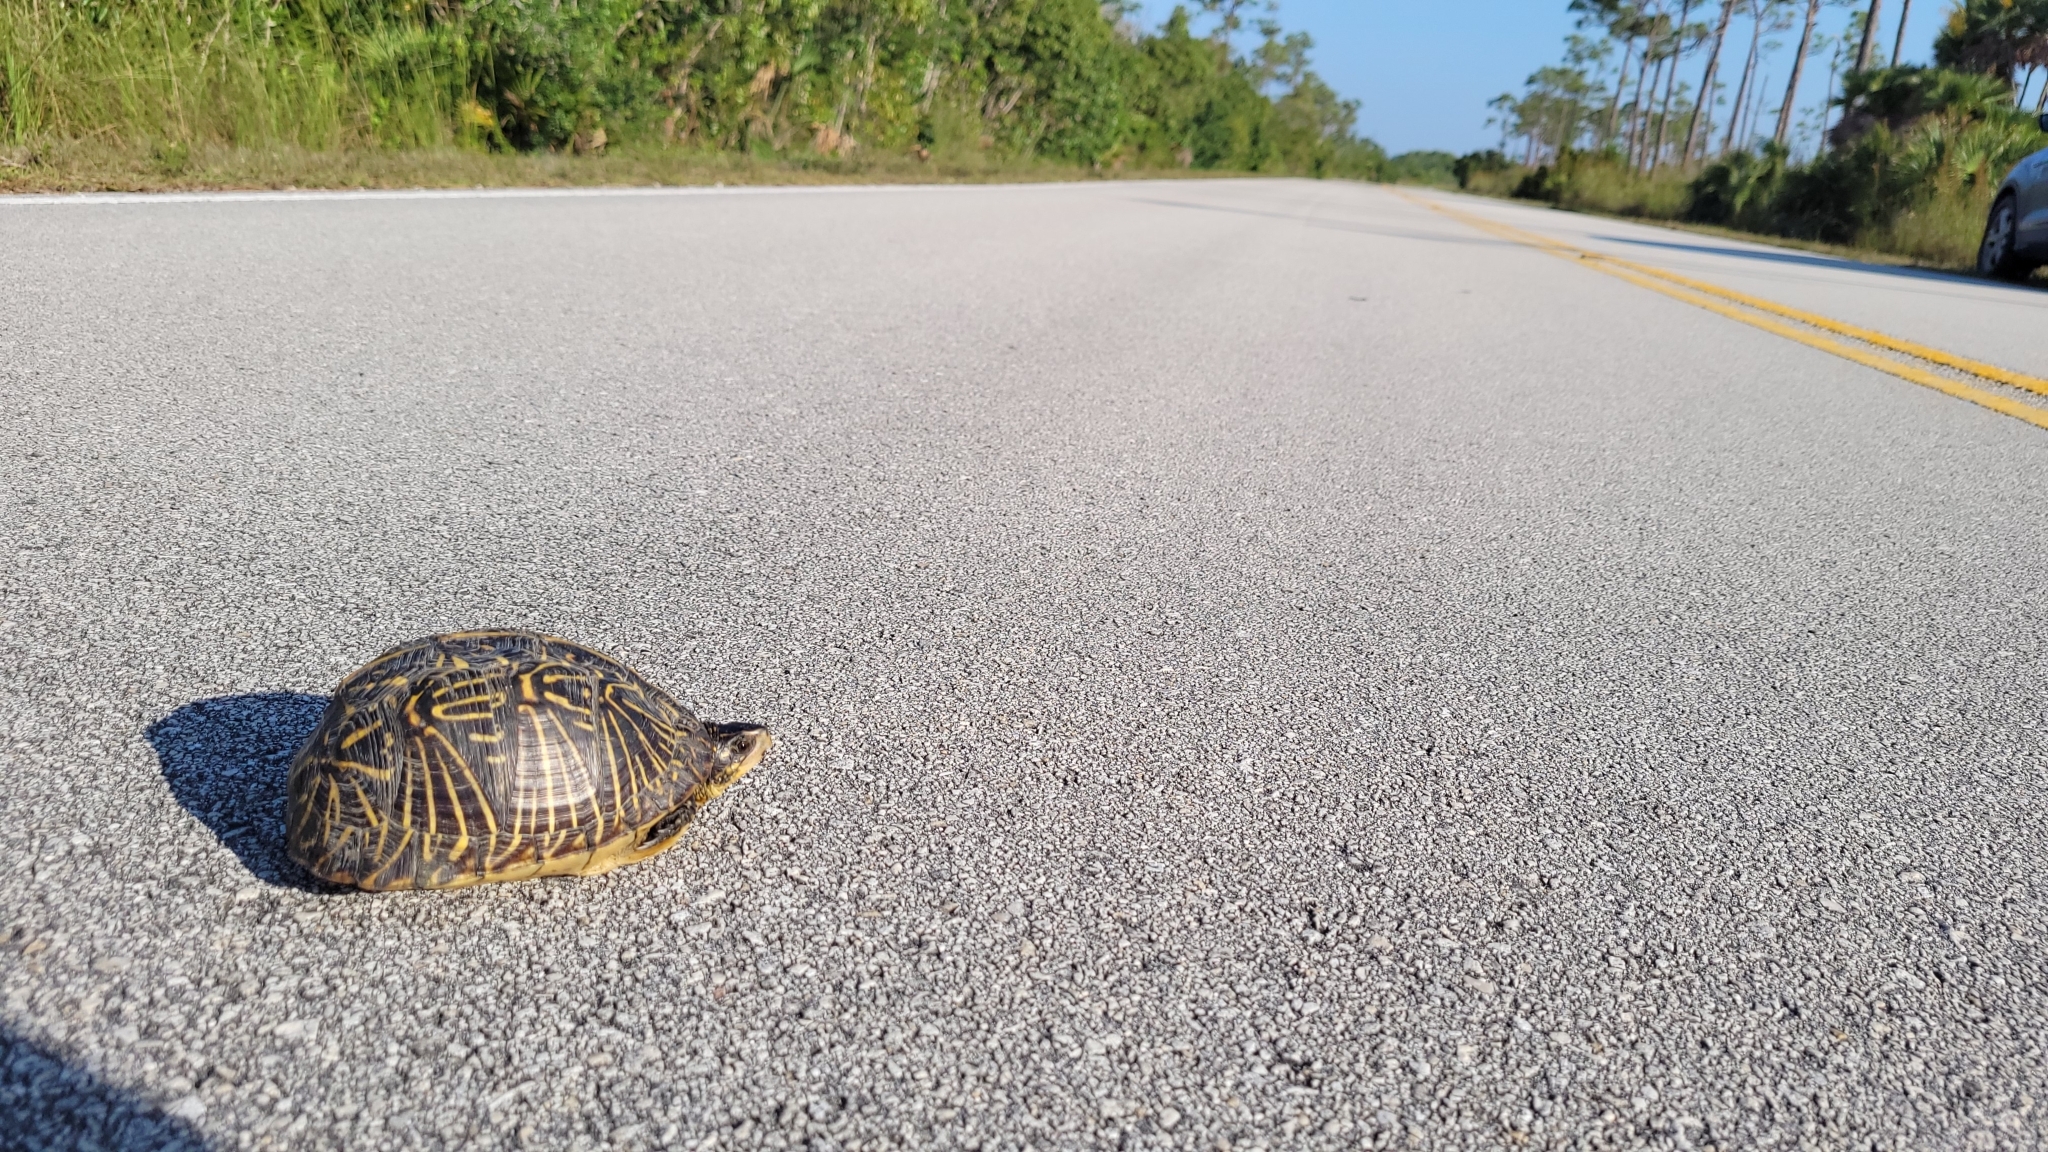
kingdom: Animalia
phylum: Chordata
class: Testudines
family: Emydidae
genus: Terrapene
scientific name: Terrapene carolina
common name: Common box turtle
